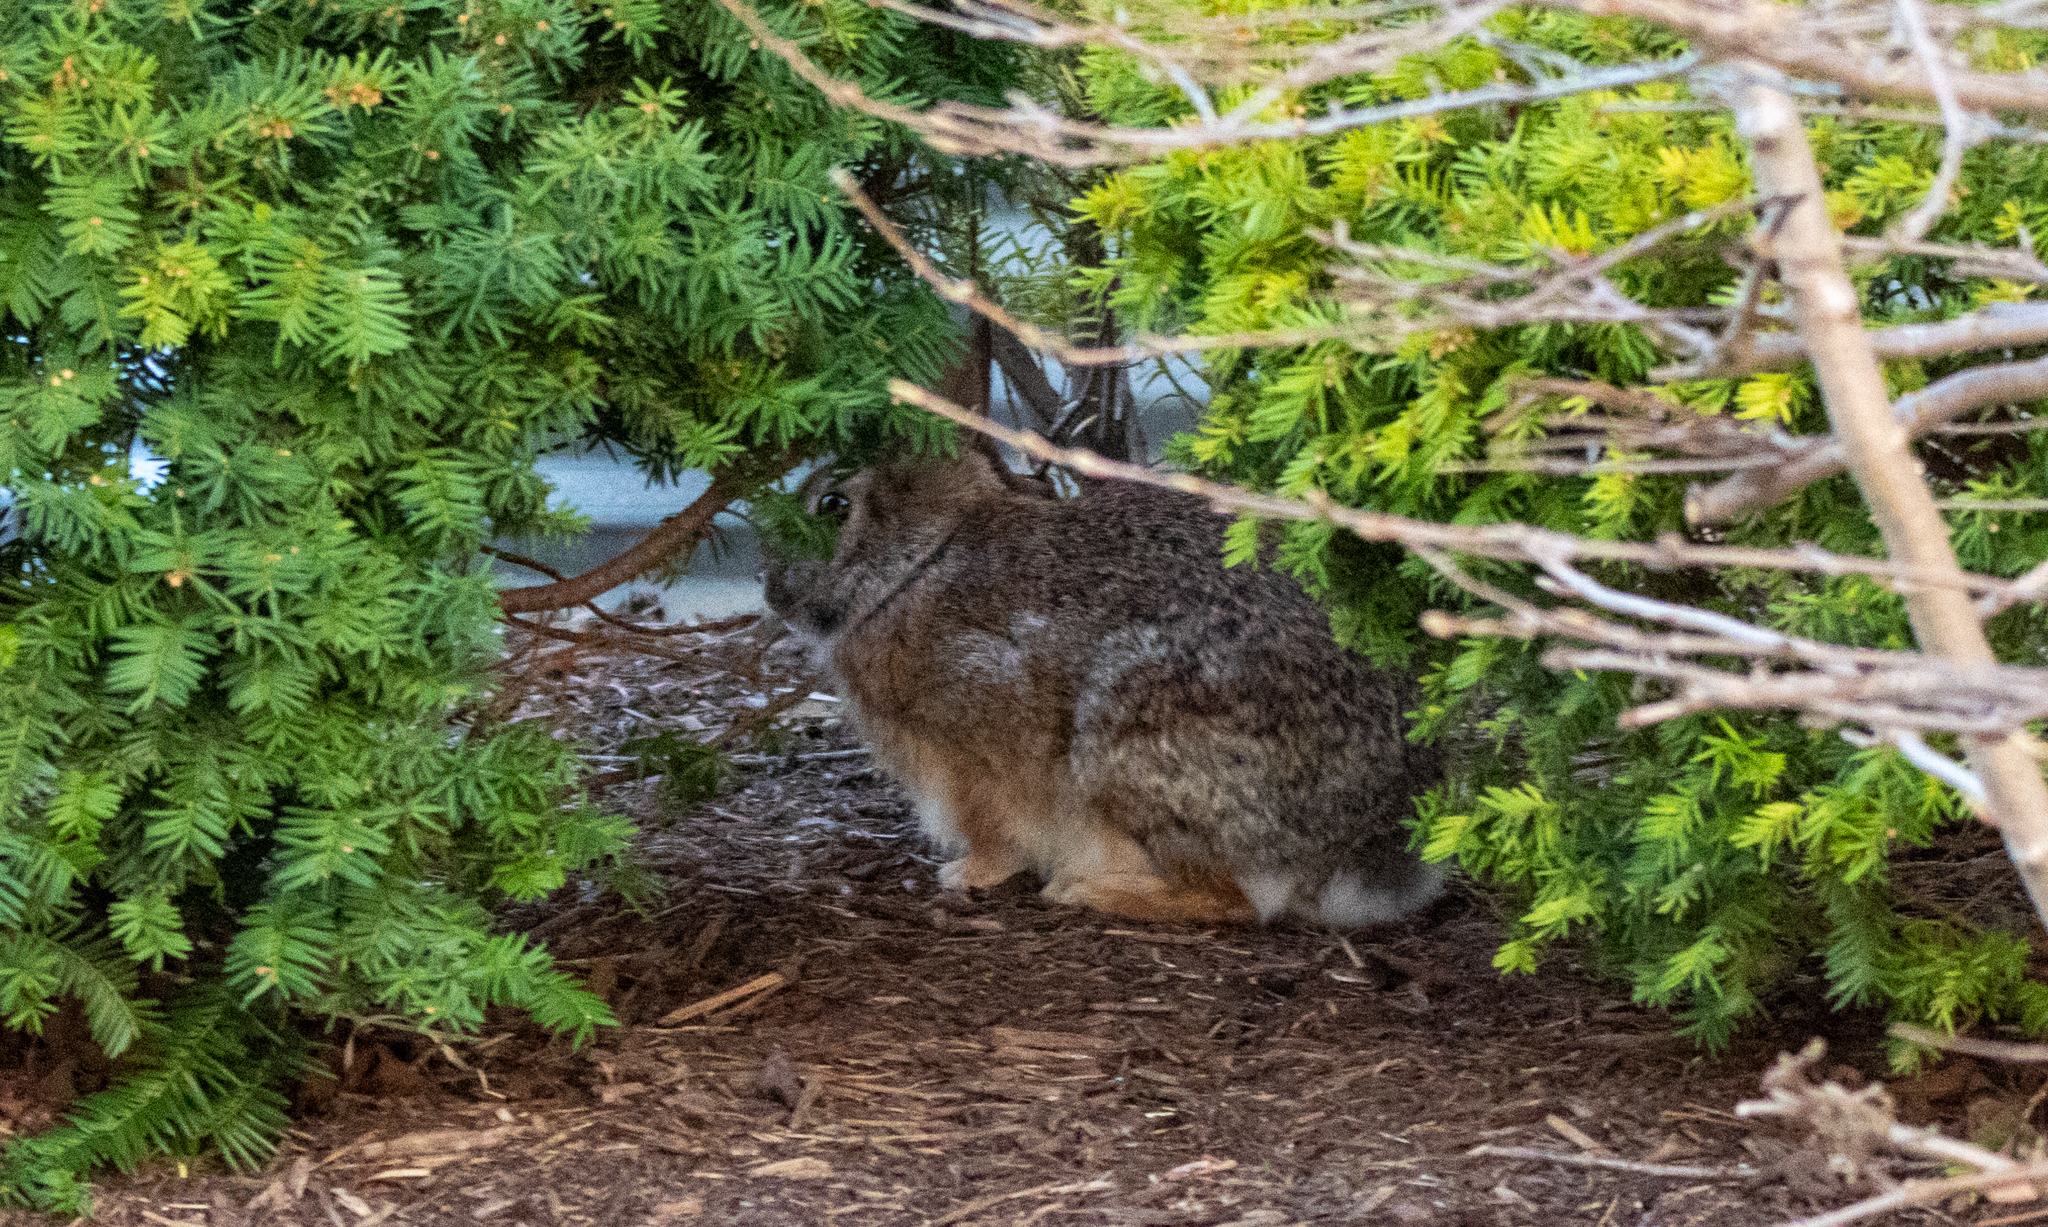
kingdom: Animalia
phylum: Chordata
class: Mammalia
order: Lagomorpha
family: Leporidae
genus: Sylvilagus
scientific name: Sylvilagus floridanus
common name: Eastern cottontail
